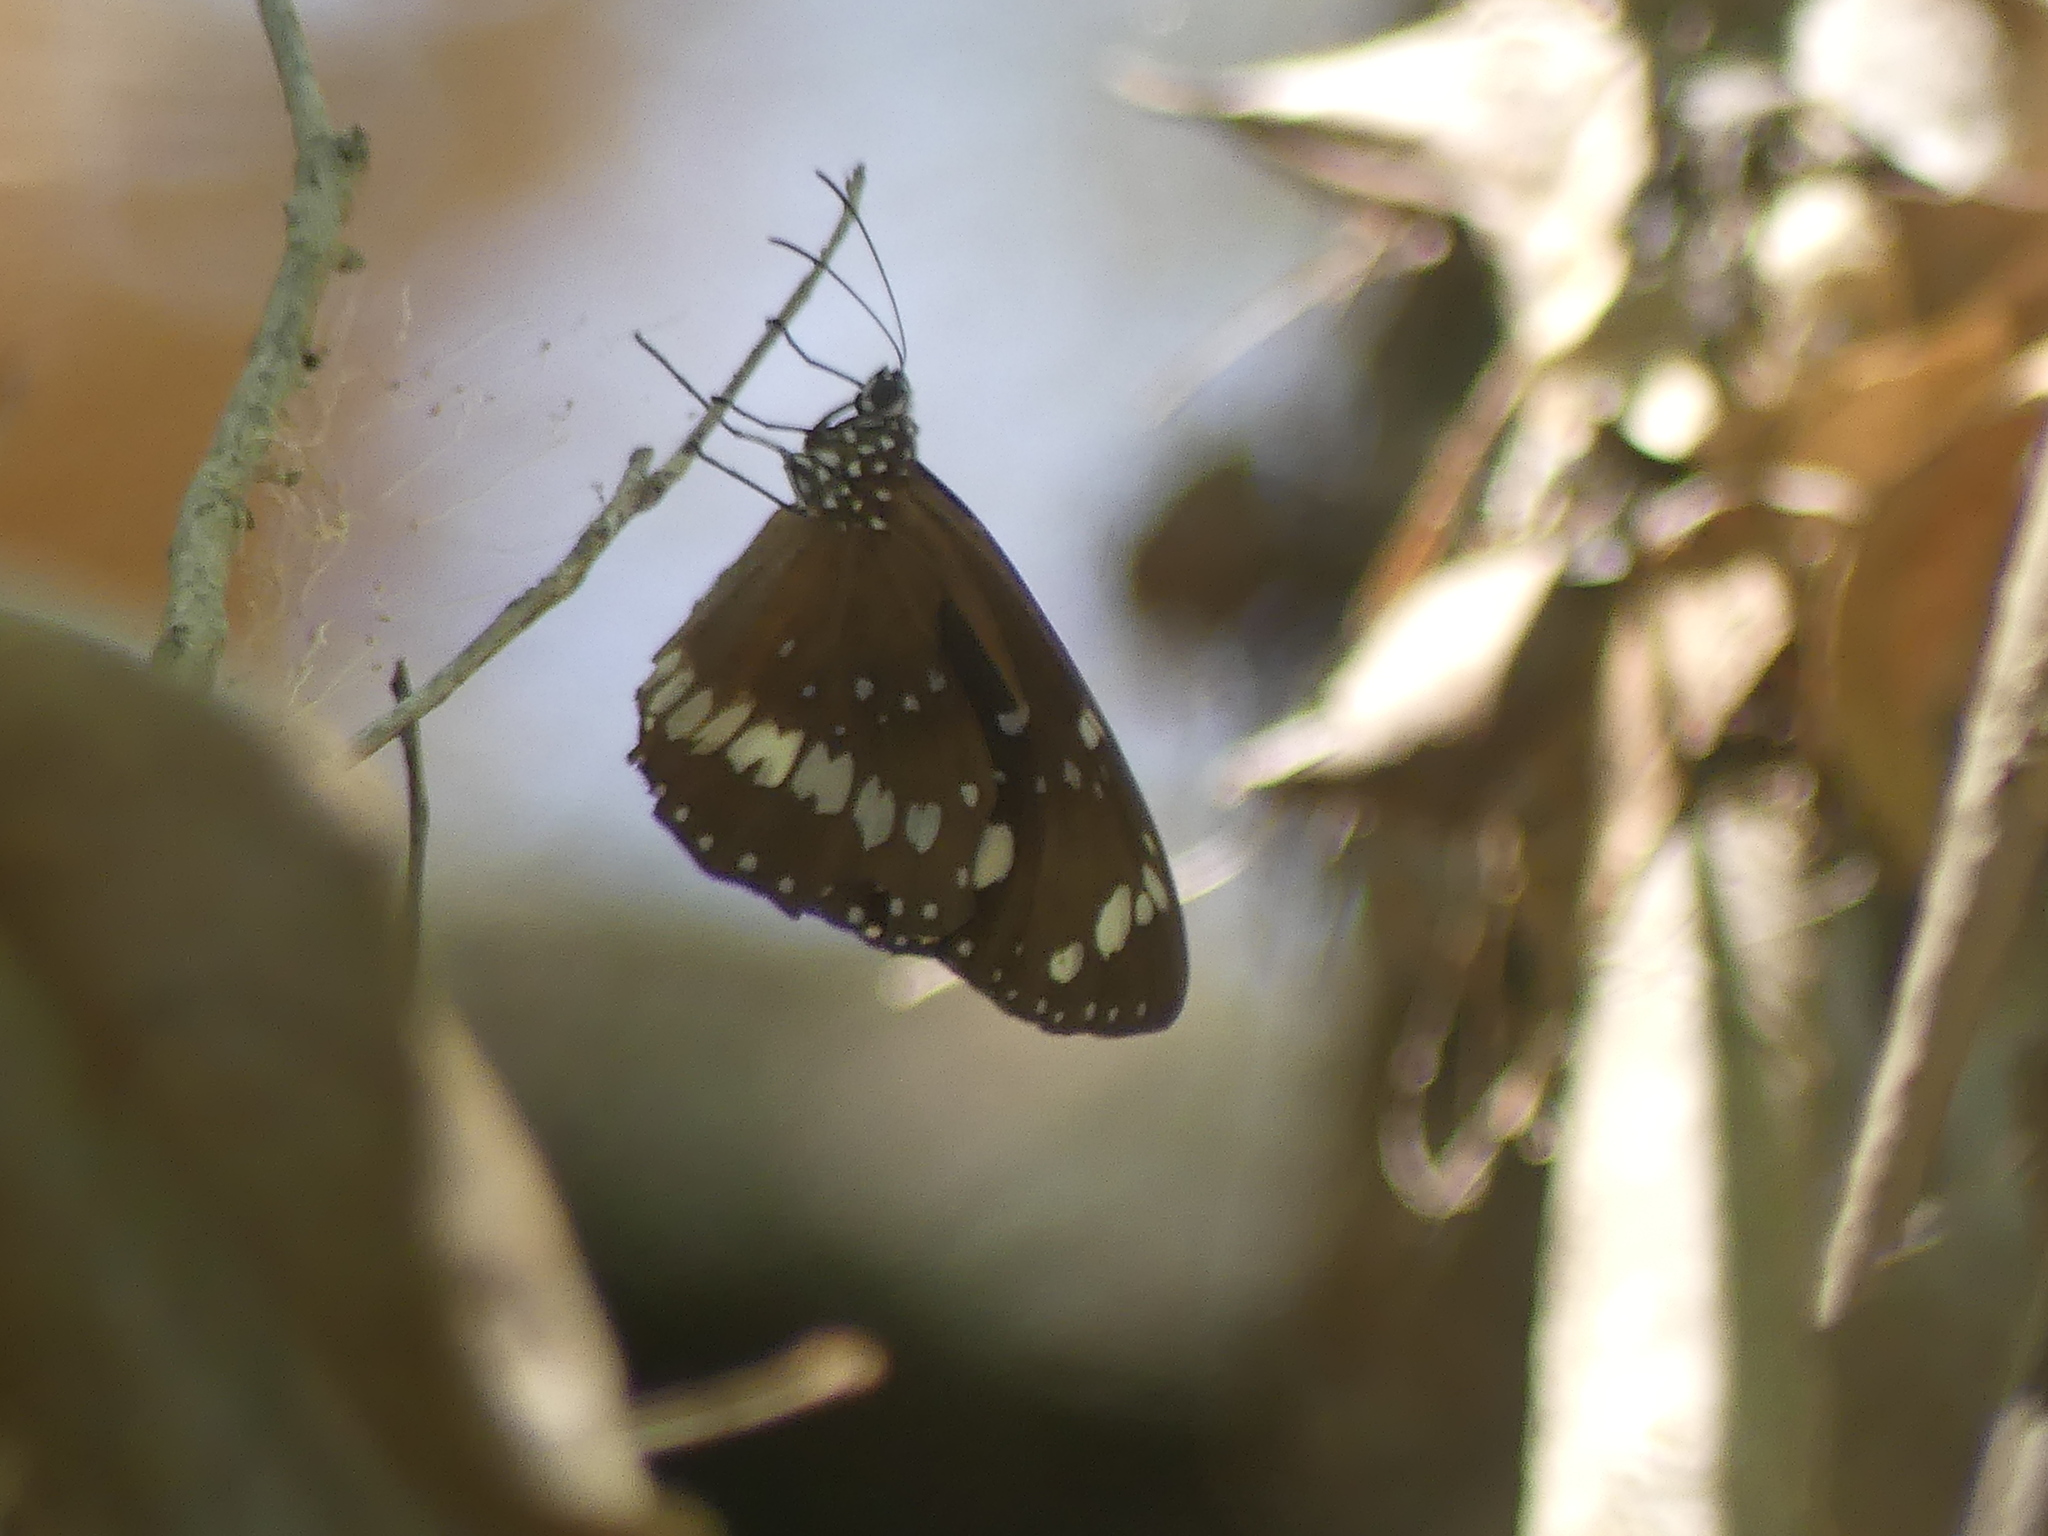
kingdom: Animalia
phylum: Arthropoda
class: Insecta
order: Lepidoptera
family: Nymphalidae
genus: Euploea
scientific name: Euploea core
